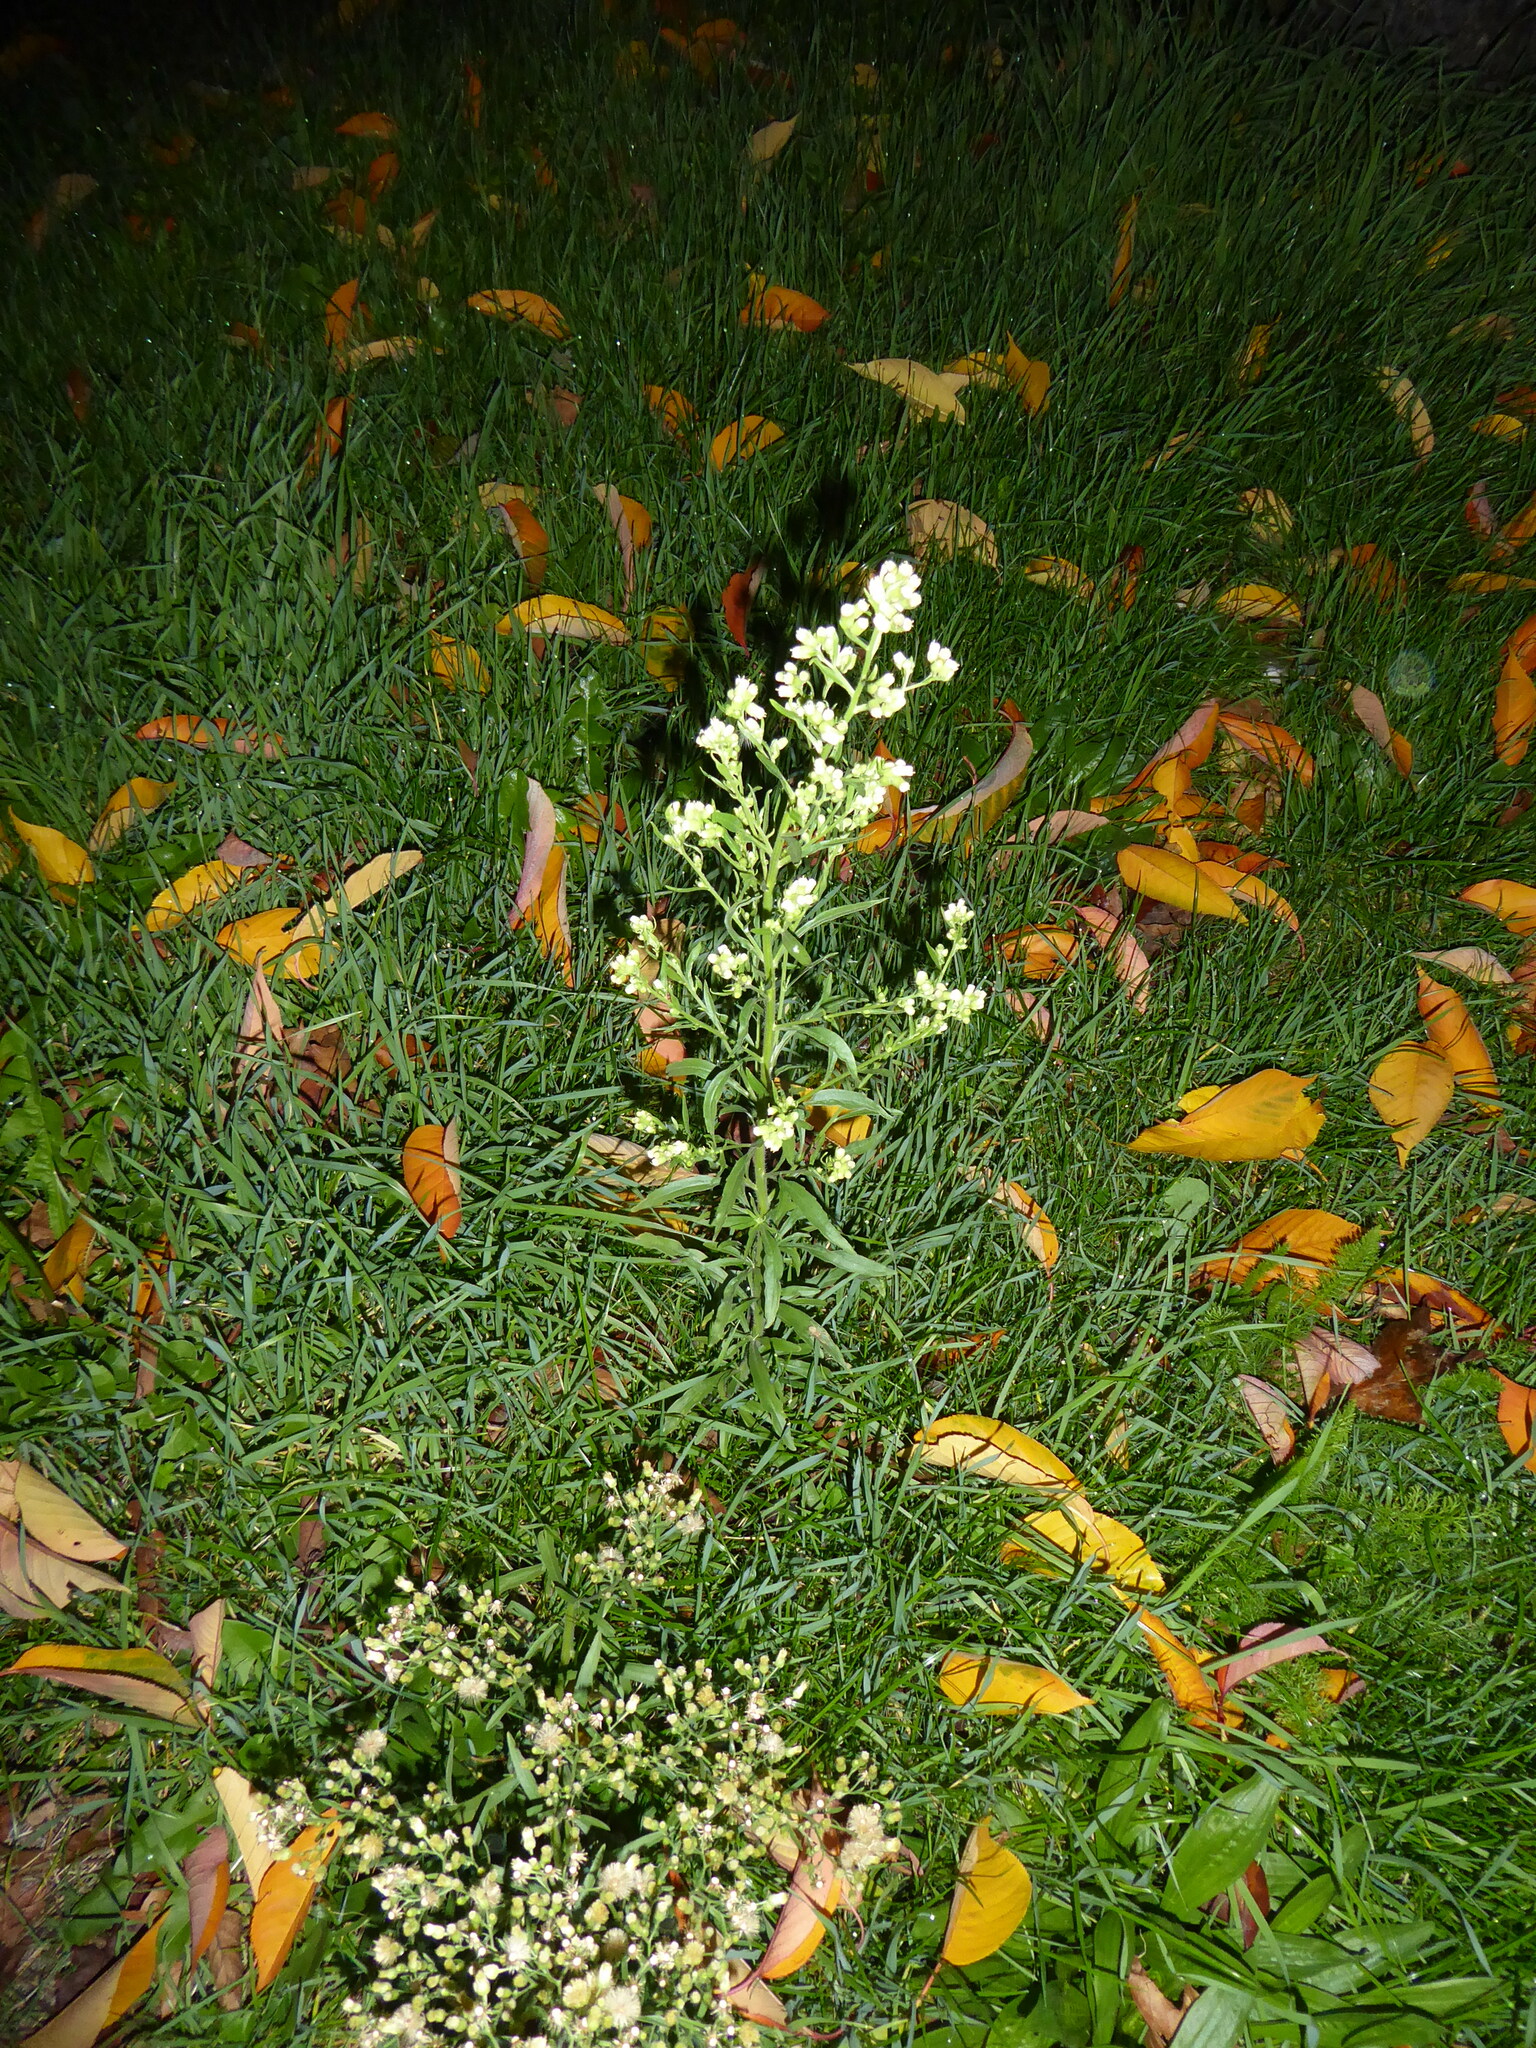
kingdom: Plantae
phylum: Tracheophyta
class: Magnoliopsida
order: Asterales
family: Asteraceae
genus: Erigeron
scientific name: Erigeron sumatrensis
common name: Daisy
